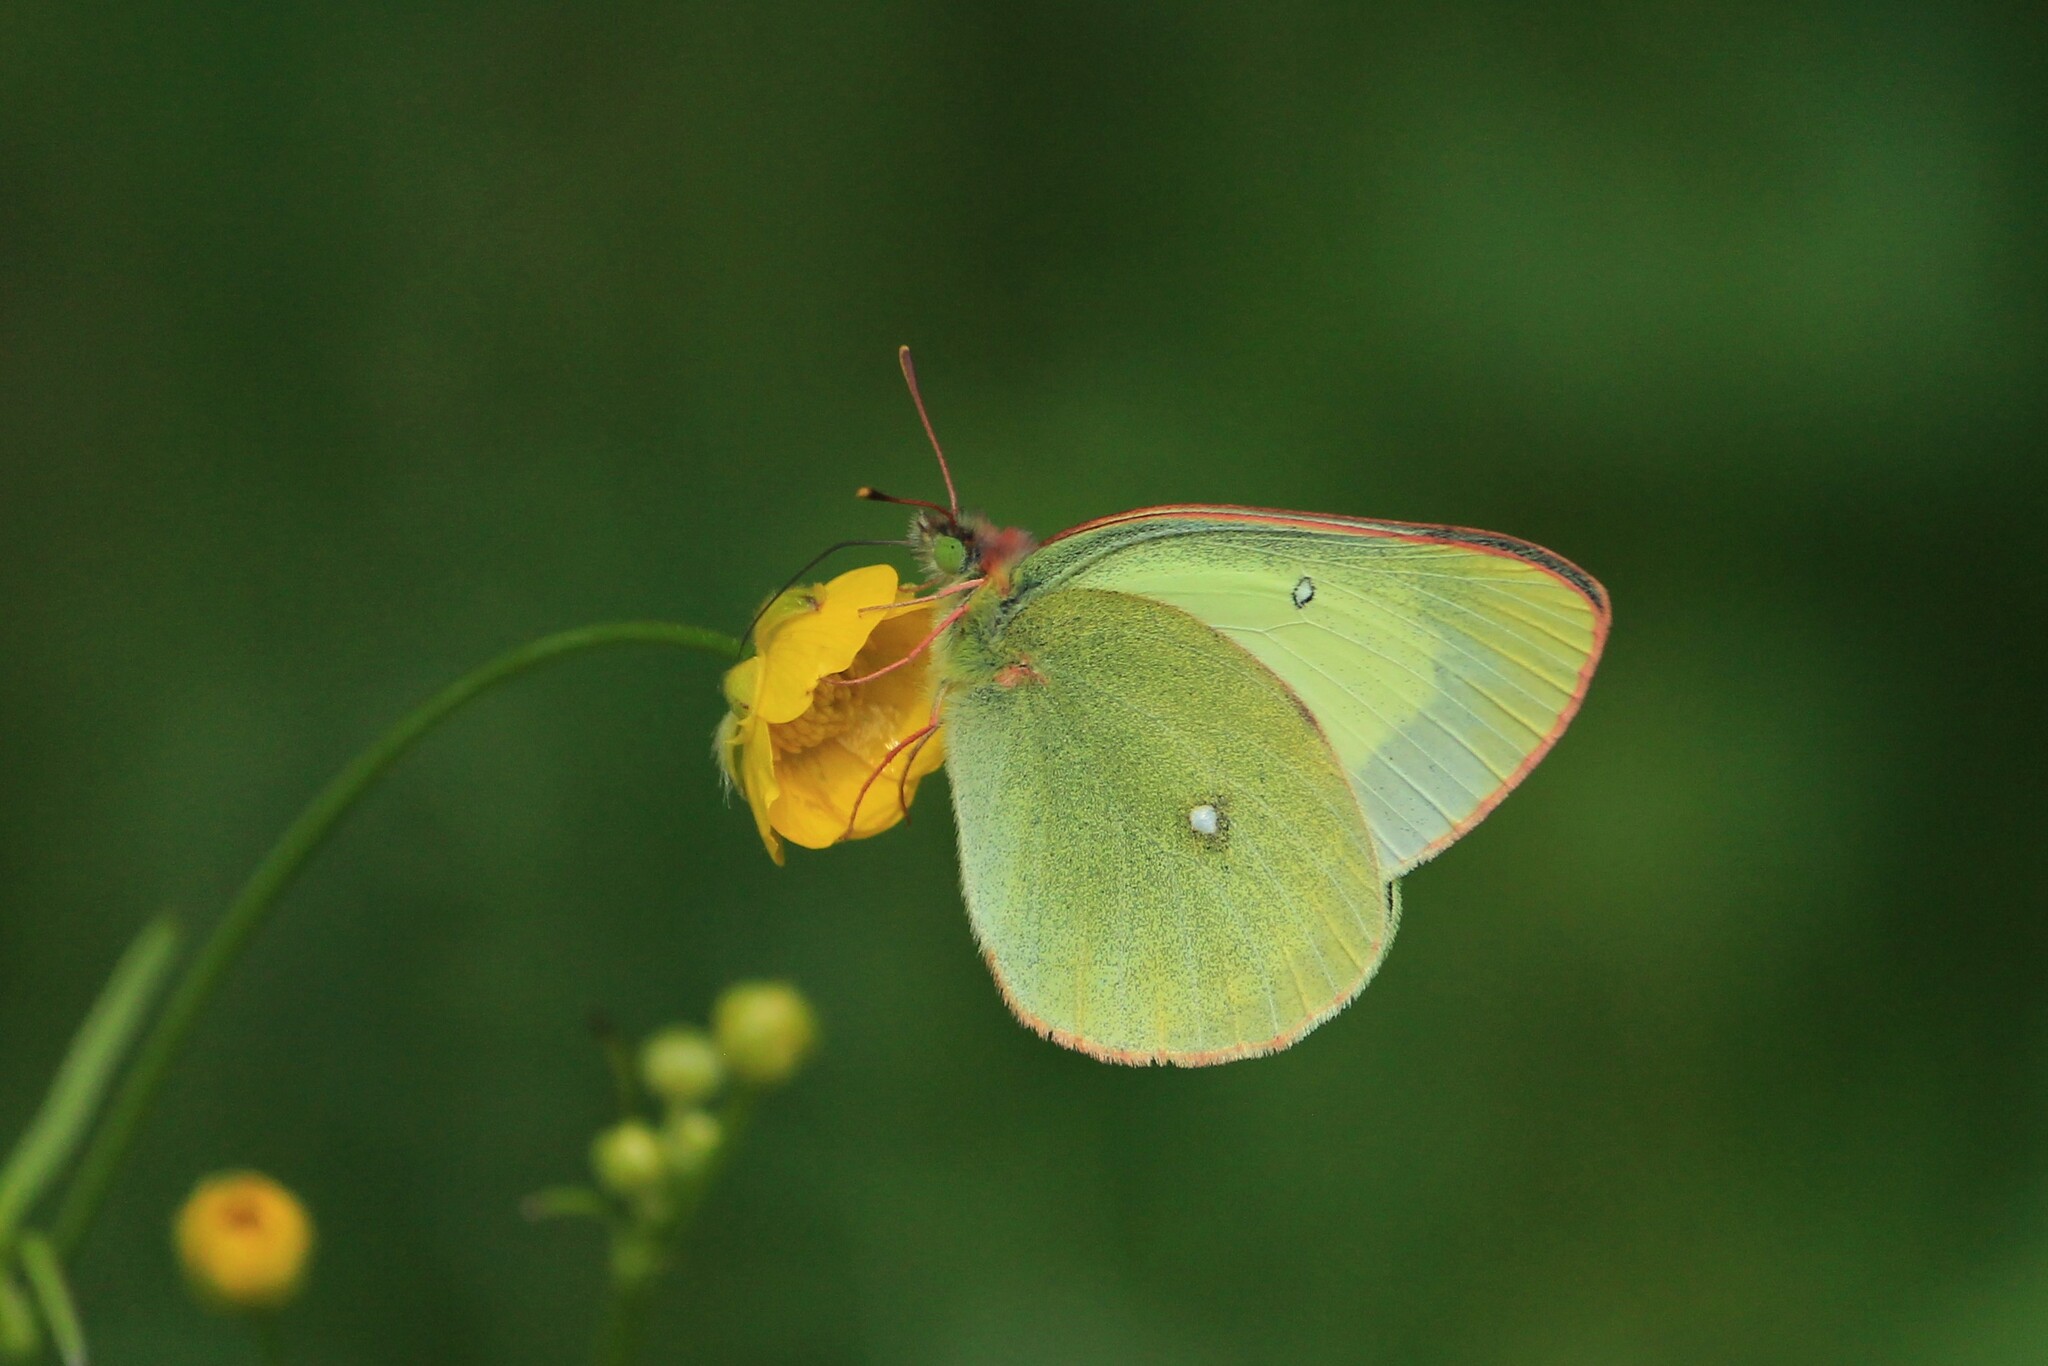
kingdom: Animalia
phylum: Arthropoda
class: Insecta
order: Lepidoptera
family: Pieridae
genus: Colias
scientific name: Colias palaeno
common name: Moorland clouded yellow
